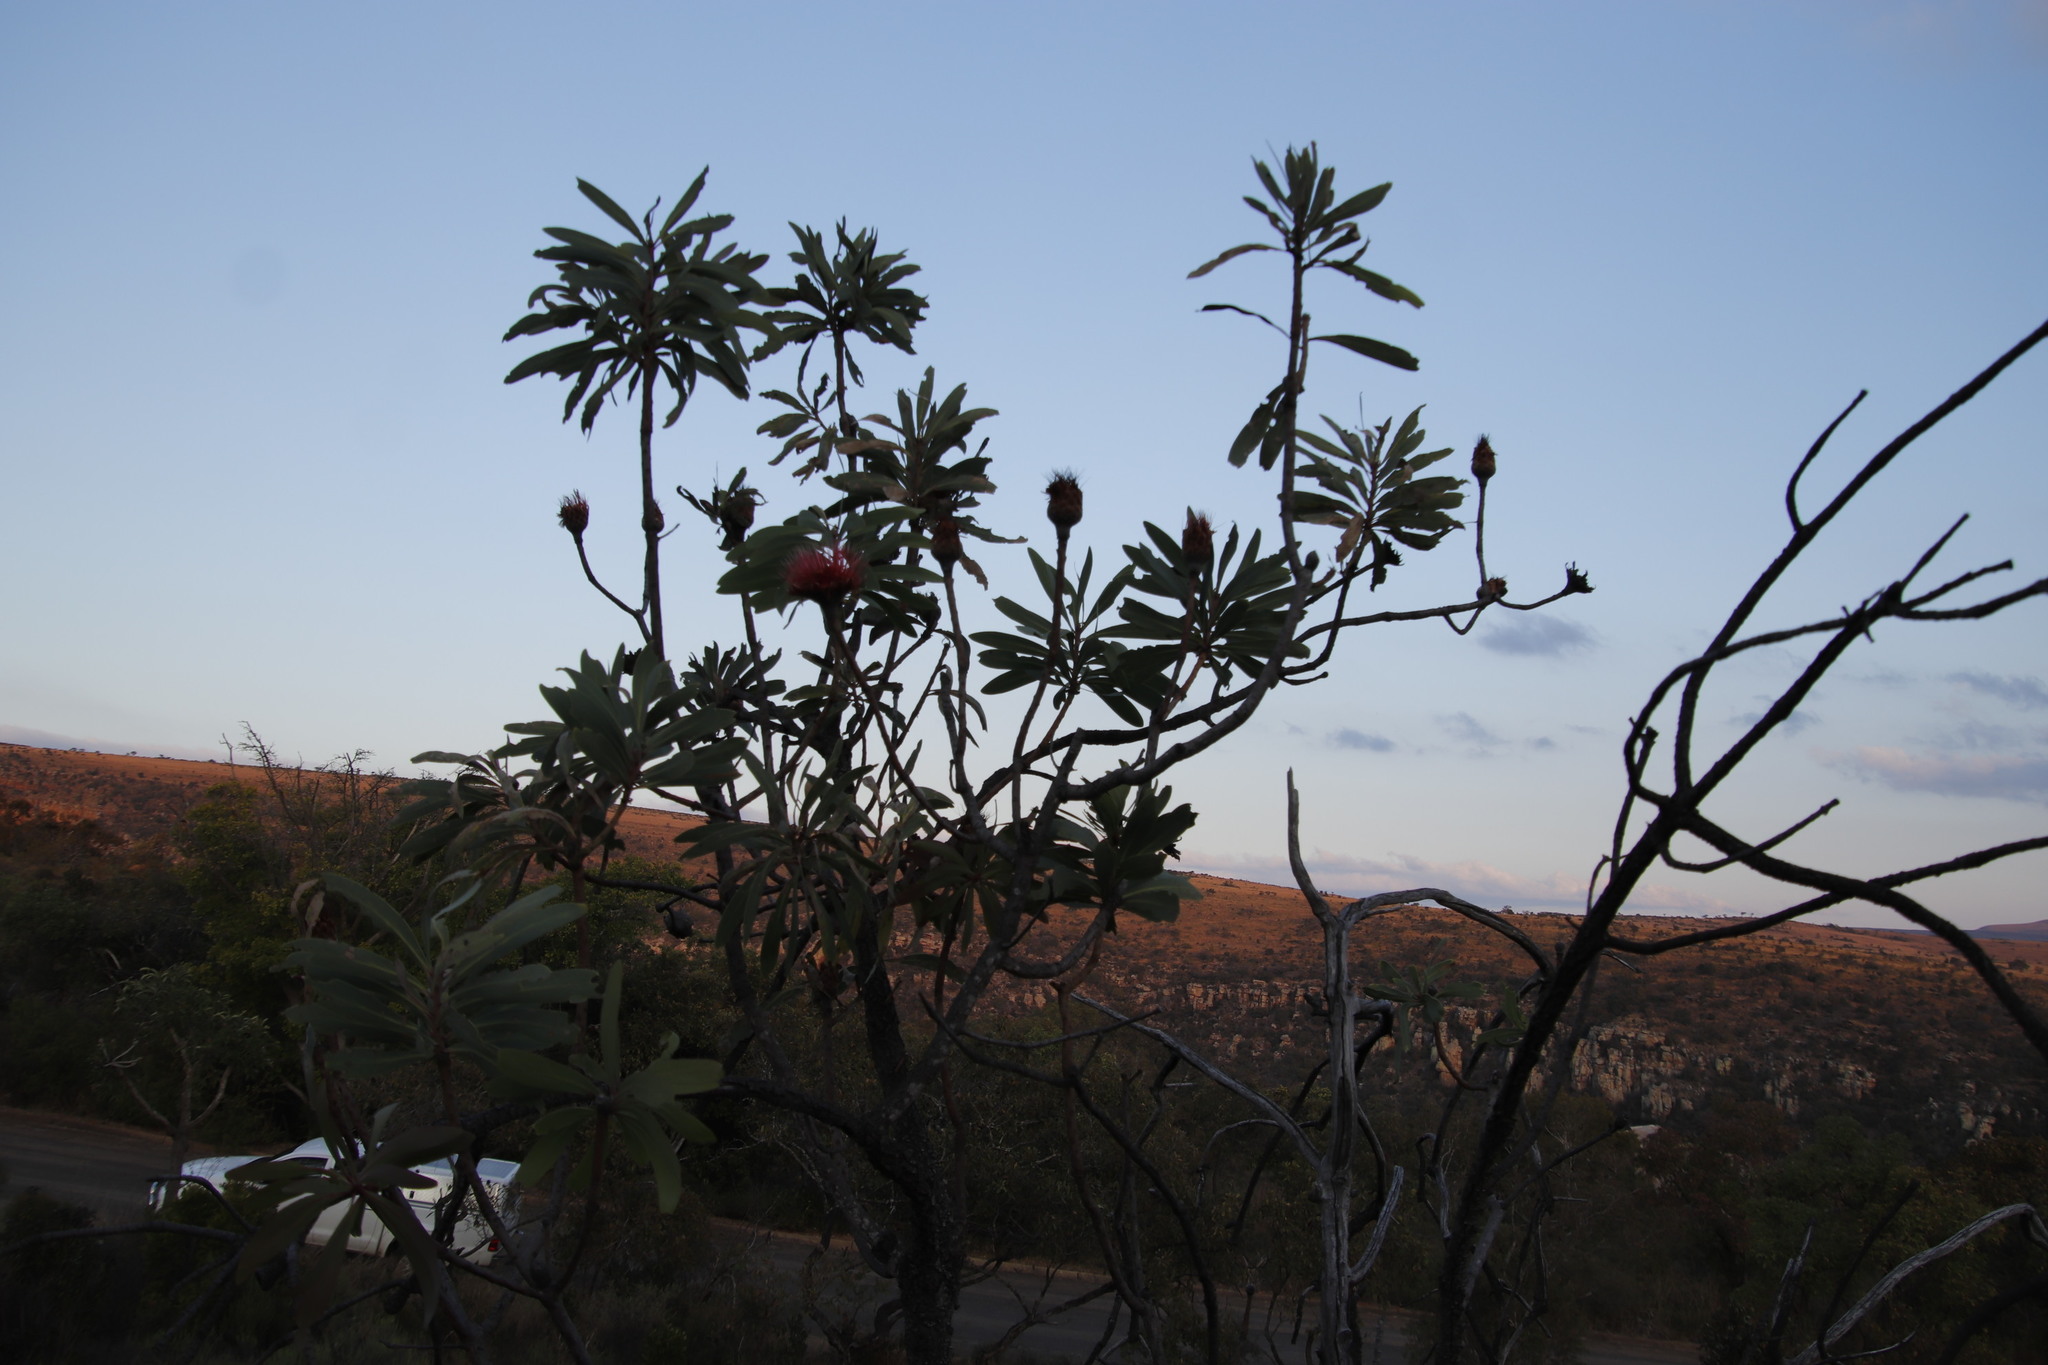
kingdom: Plantae
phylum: Tracheophyta
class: Magnoliopsida
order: Proteales
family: Proteaceae
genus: Protea
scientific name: Protea laetans
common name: Blyde protea
